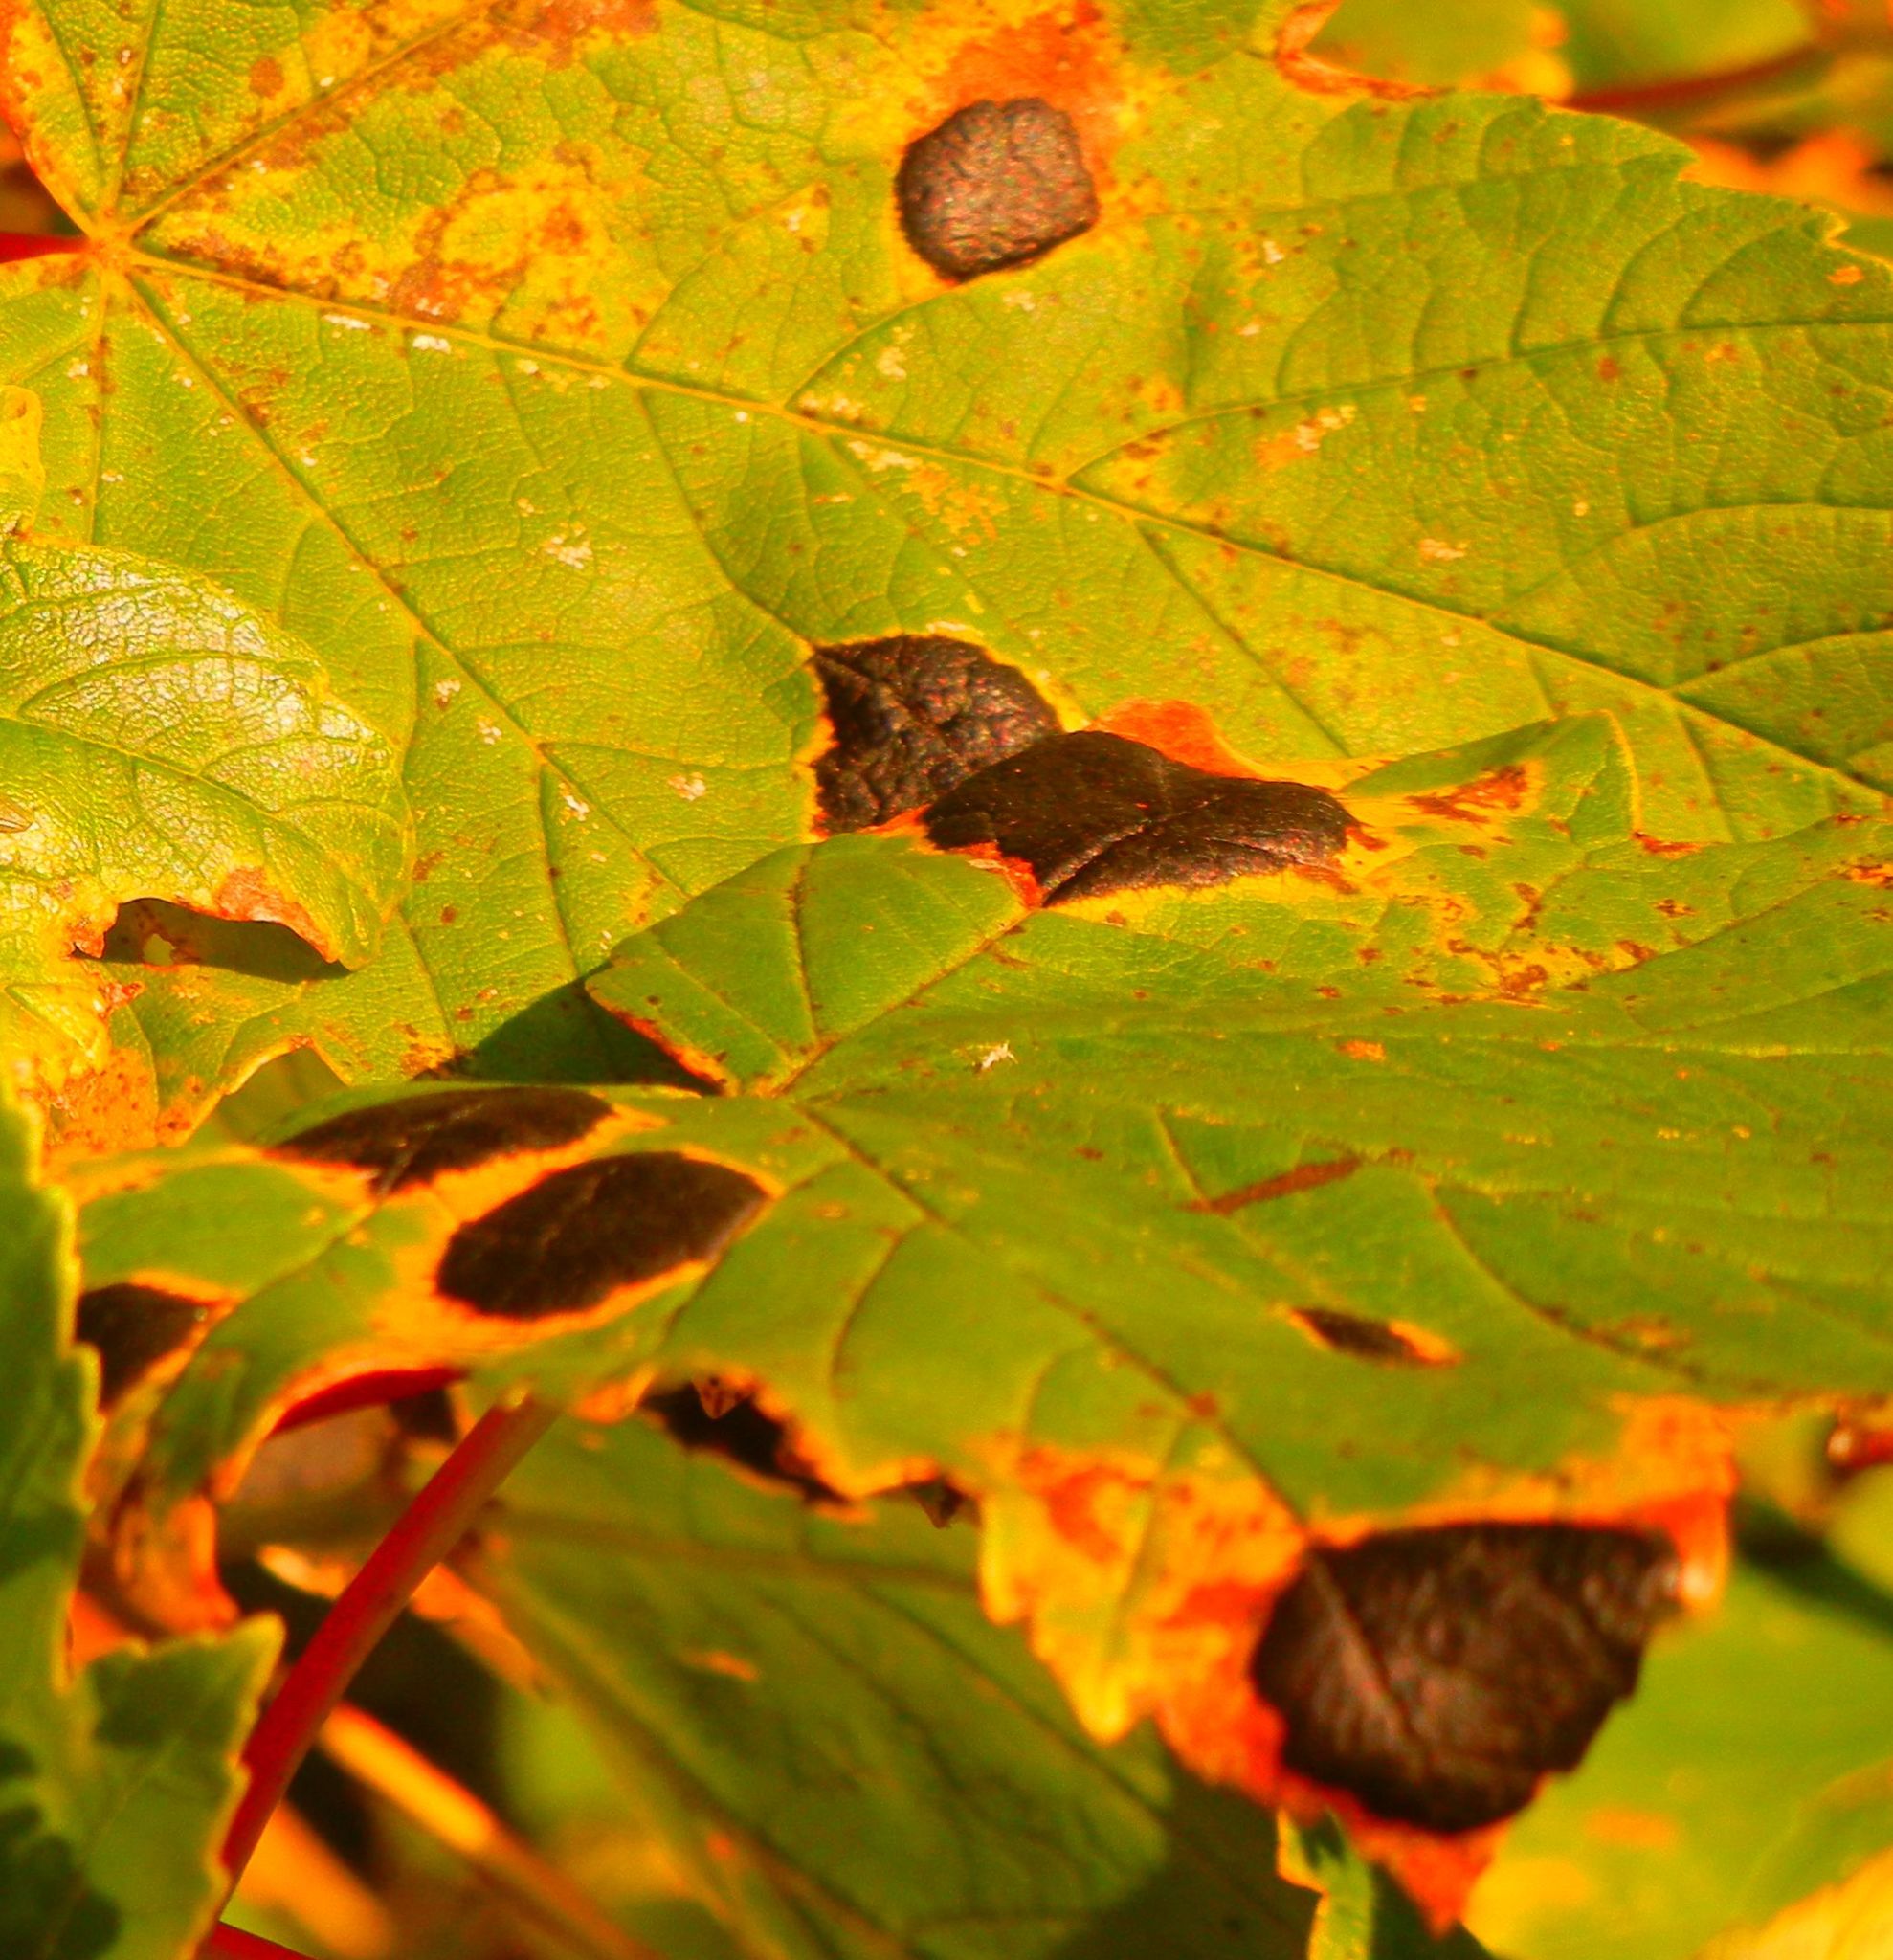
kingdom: Fungi
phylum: Ascomycota
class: Leotiomycetes
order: Rhytismatales
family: Rhytismataceae
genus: Rhytisma
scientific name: Rhytisma acerinum
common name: European tar spot
